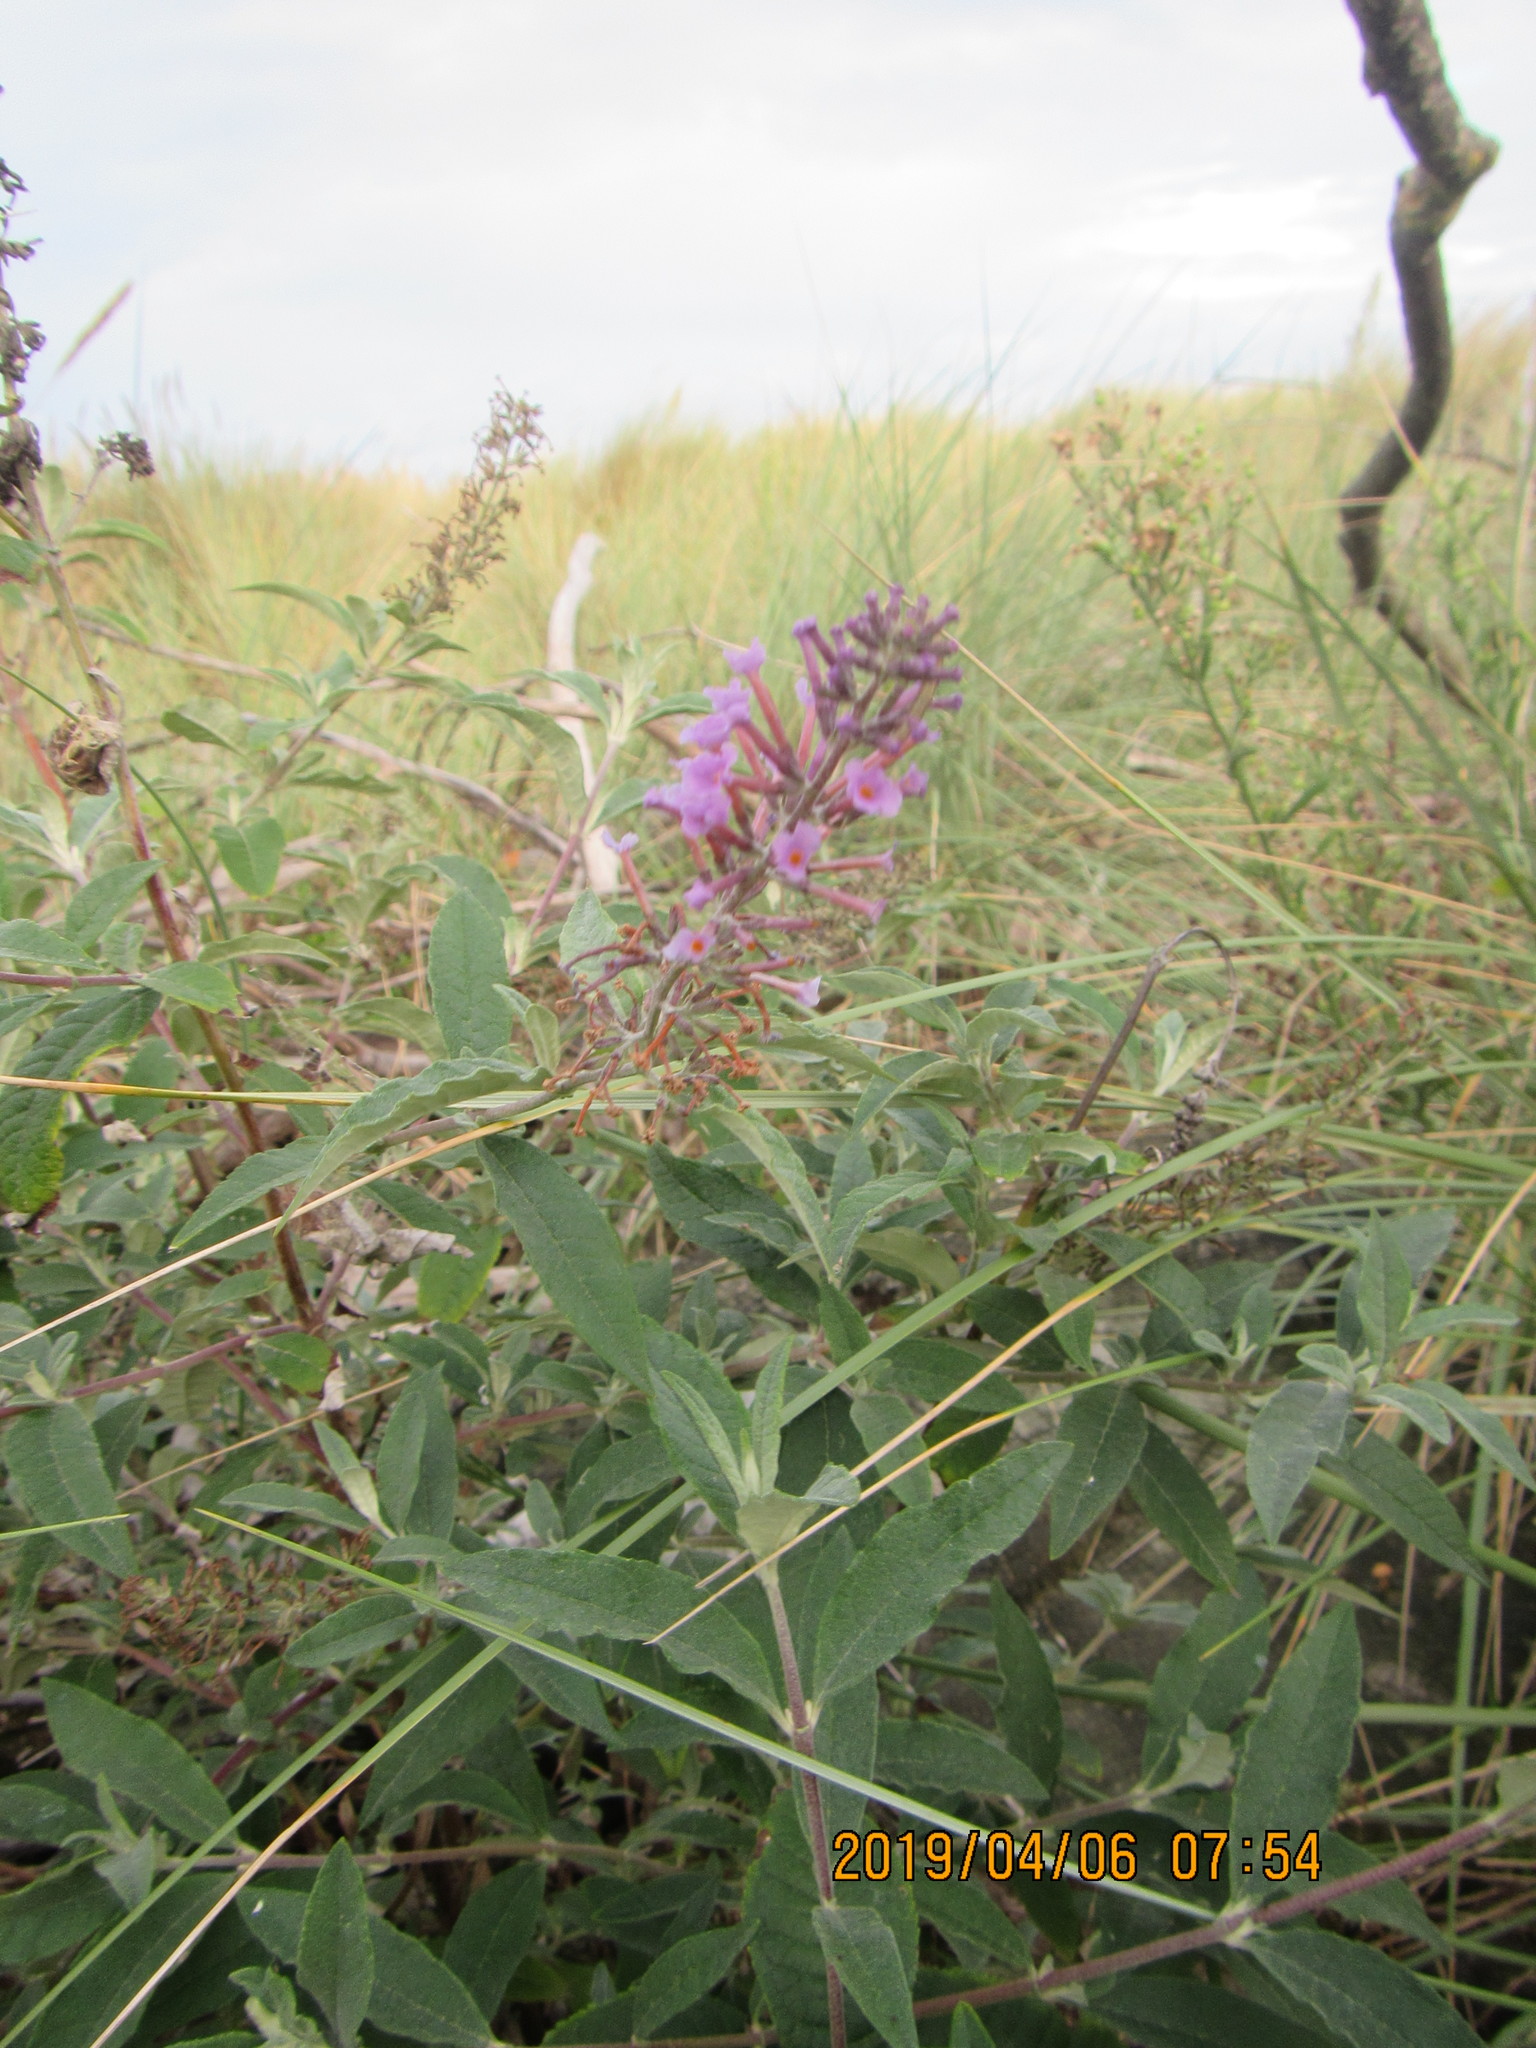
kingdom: Plantae
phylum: Tracheophyta
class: Magnoliopsida
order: Lamiales
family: Scrophulariaceae
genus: Buddleja
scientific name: Buddleja davidii
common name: Butterfly-bush
